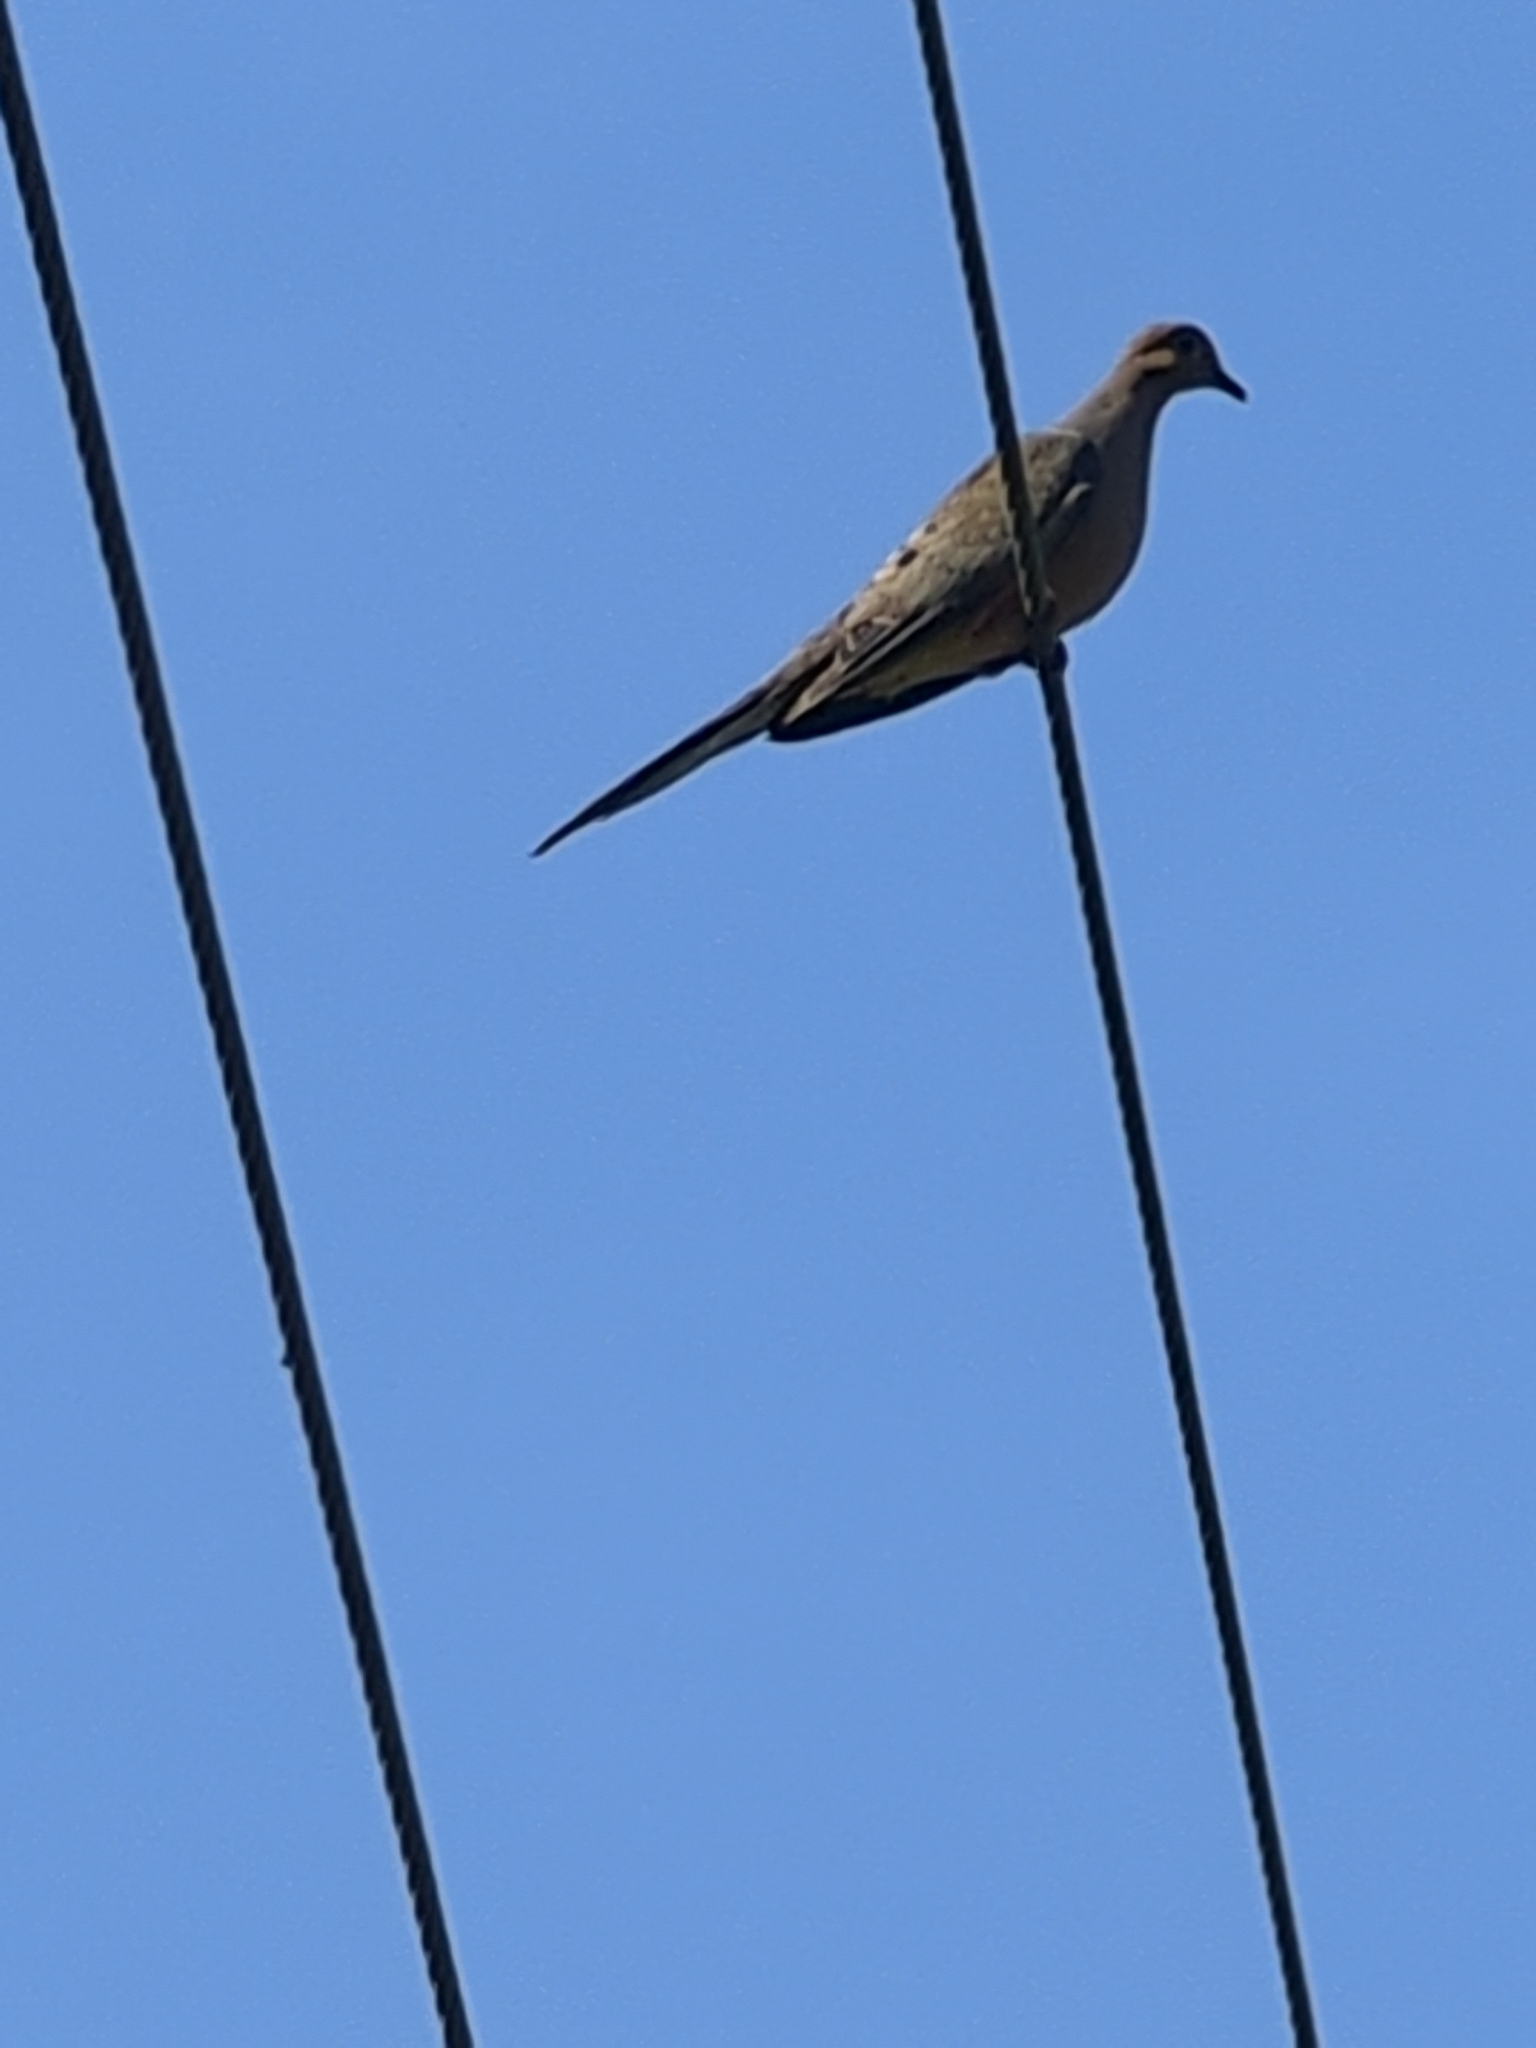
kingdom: Animalia
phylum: Chordata
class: Aves
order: Columbiformes
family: Columbidae
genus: Zenaida
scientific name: Zenaida macroura
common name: Mourning dove
